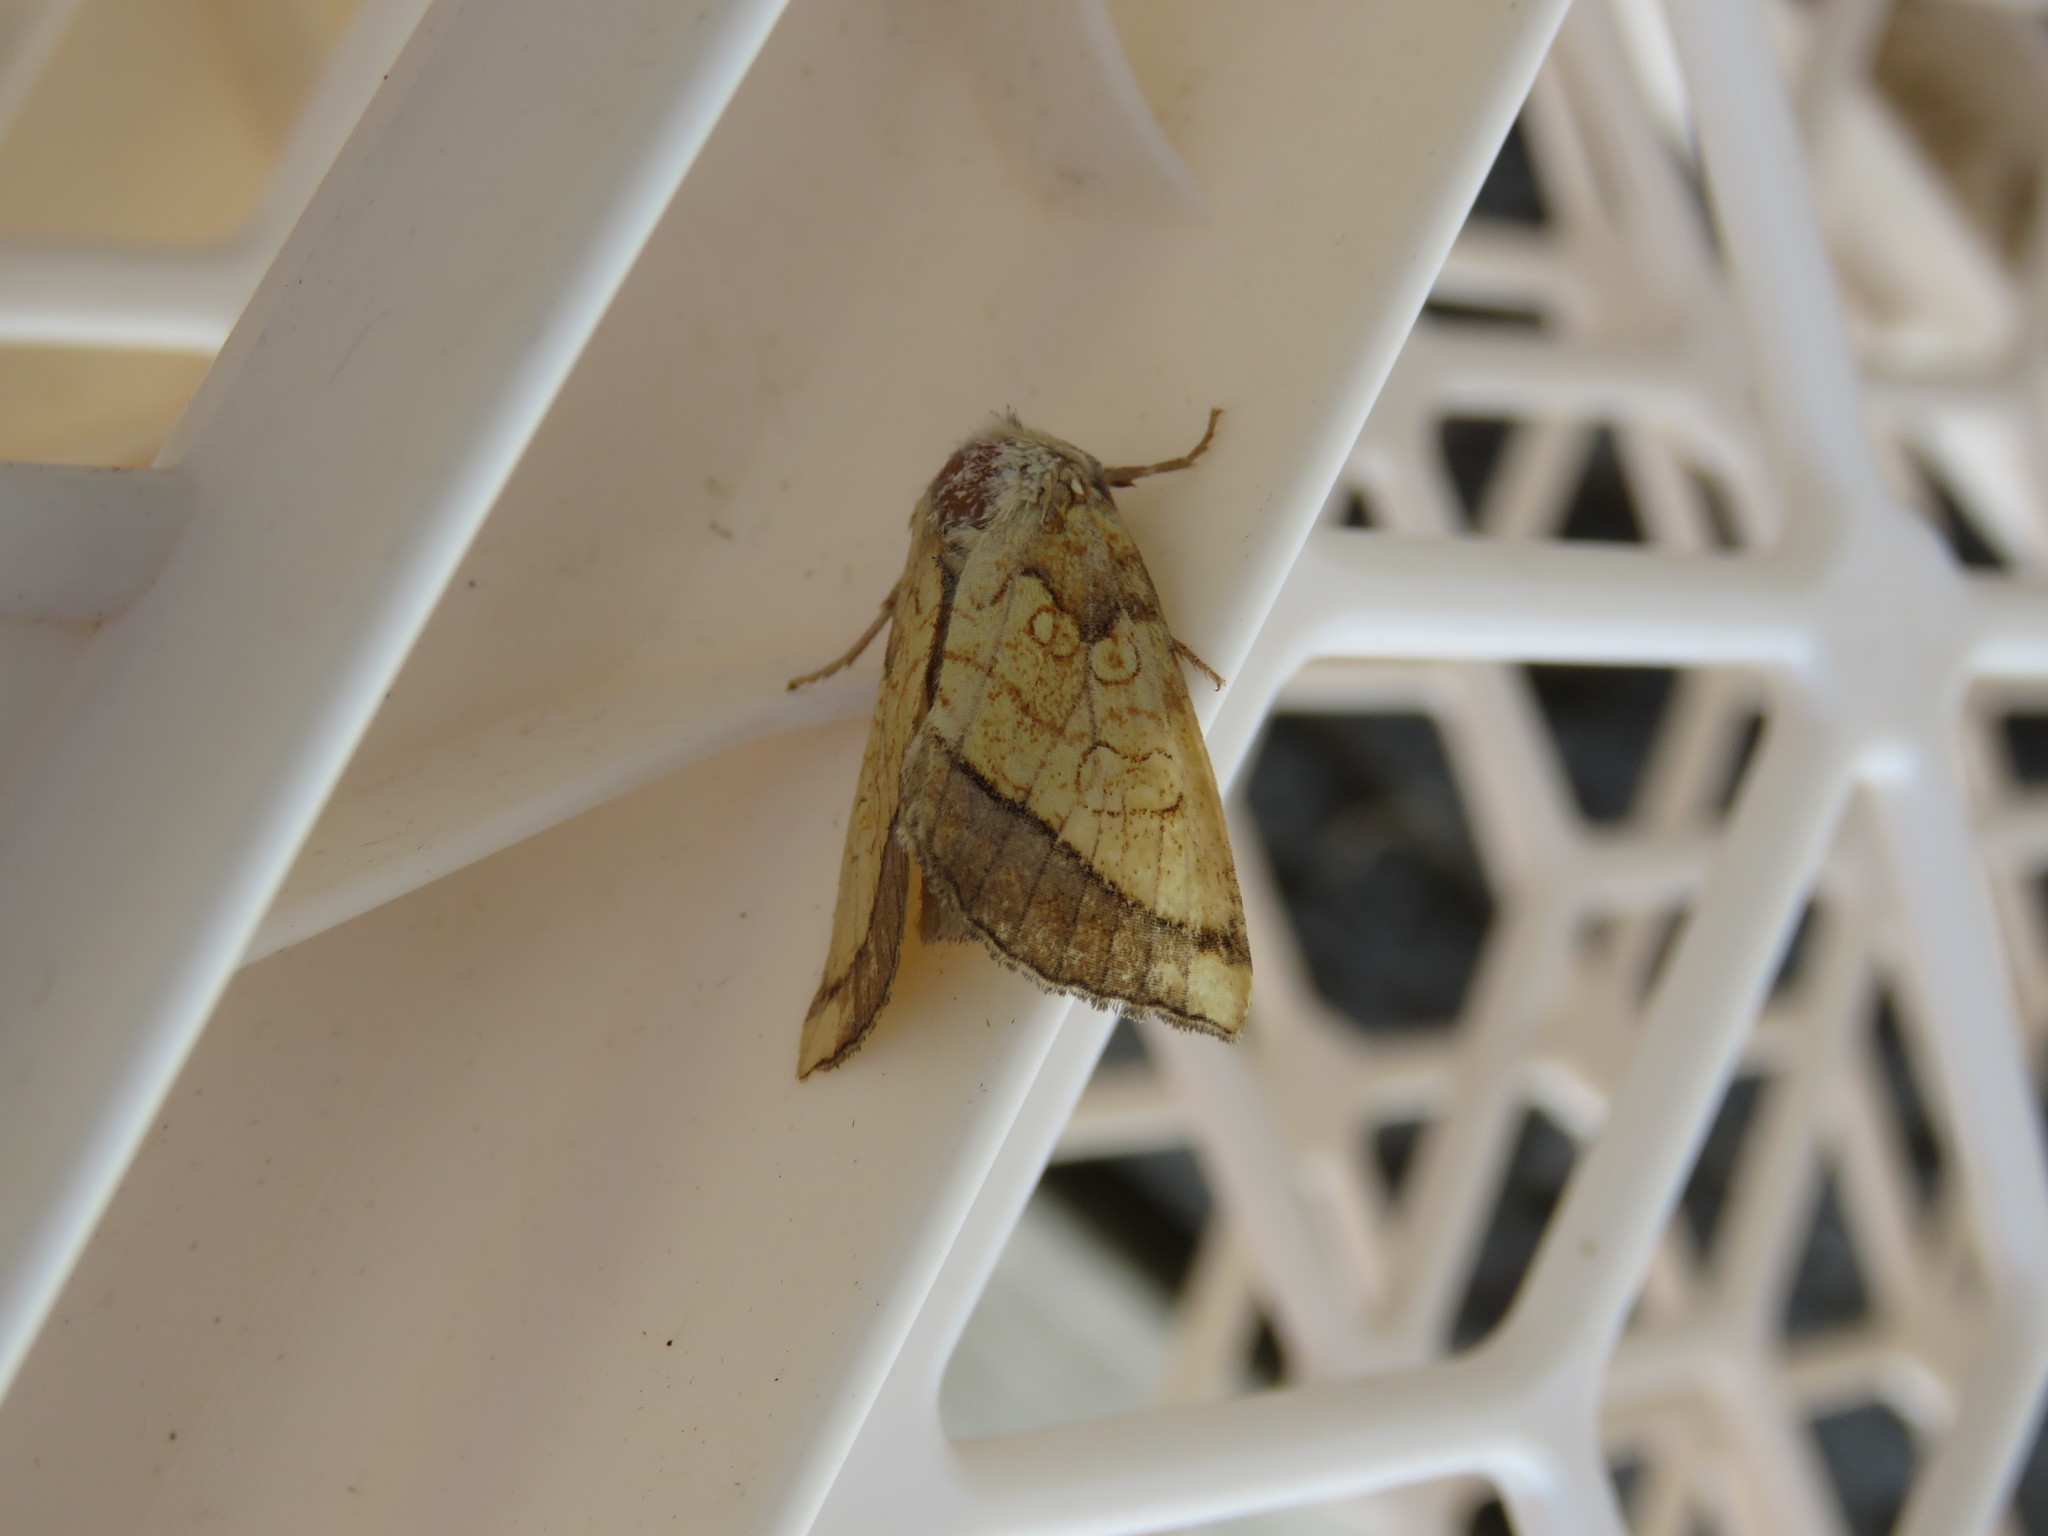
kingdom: Animalia
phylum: Arthropoda
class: Insecta
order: Lepidoptera
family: Noctuidae
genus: Papaipema
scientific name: Papaipema rigida
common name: Rigid sunflower borer moth
